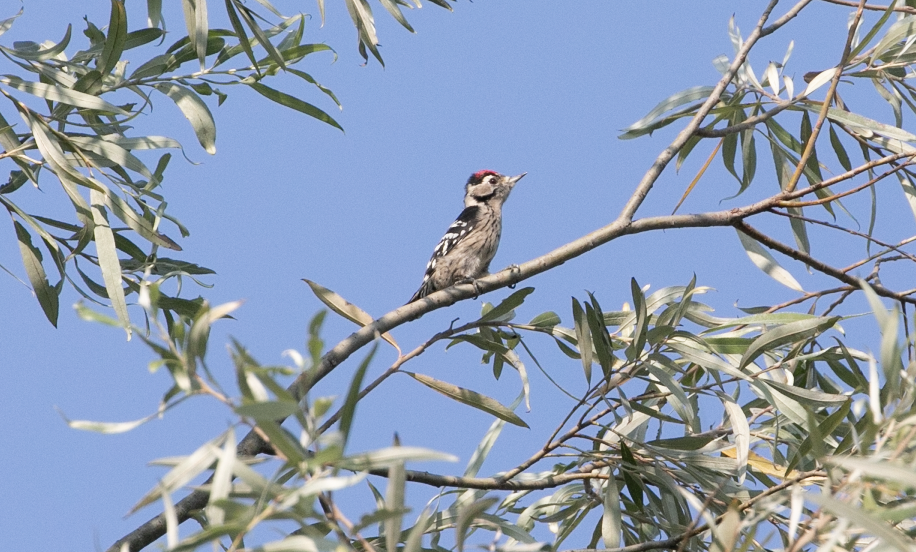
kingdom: Animalia
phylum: Chordata
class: Aves
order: Piciformes
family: Picidae
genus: Dryobates
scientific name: Dryobates minor
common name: Lesser spotted woodpecker
